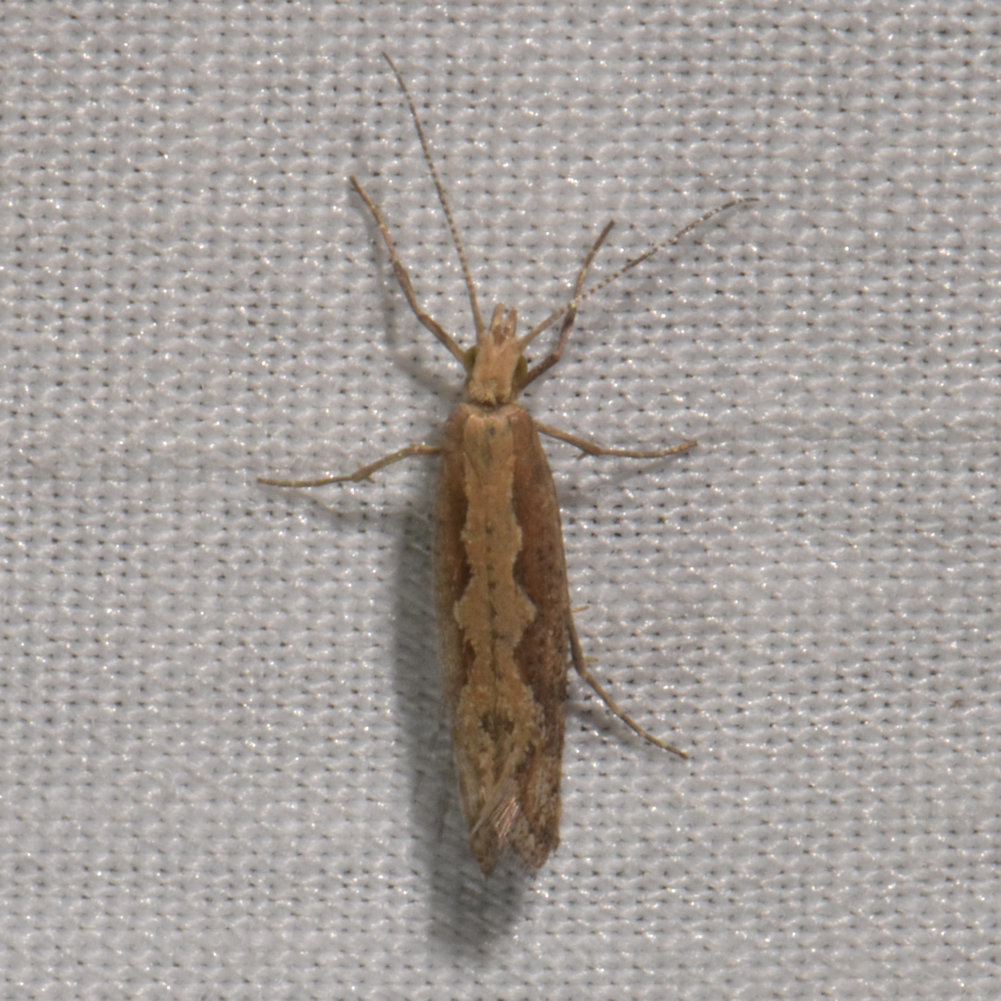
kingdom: Animalia
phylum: Arthropoda
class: Insecta
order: Lepidoptera
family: Plutellidae
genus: Plutella
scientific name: Plutella xylostella
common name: Diamond-back moth
